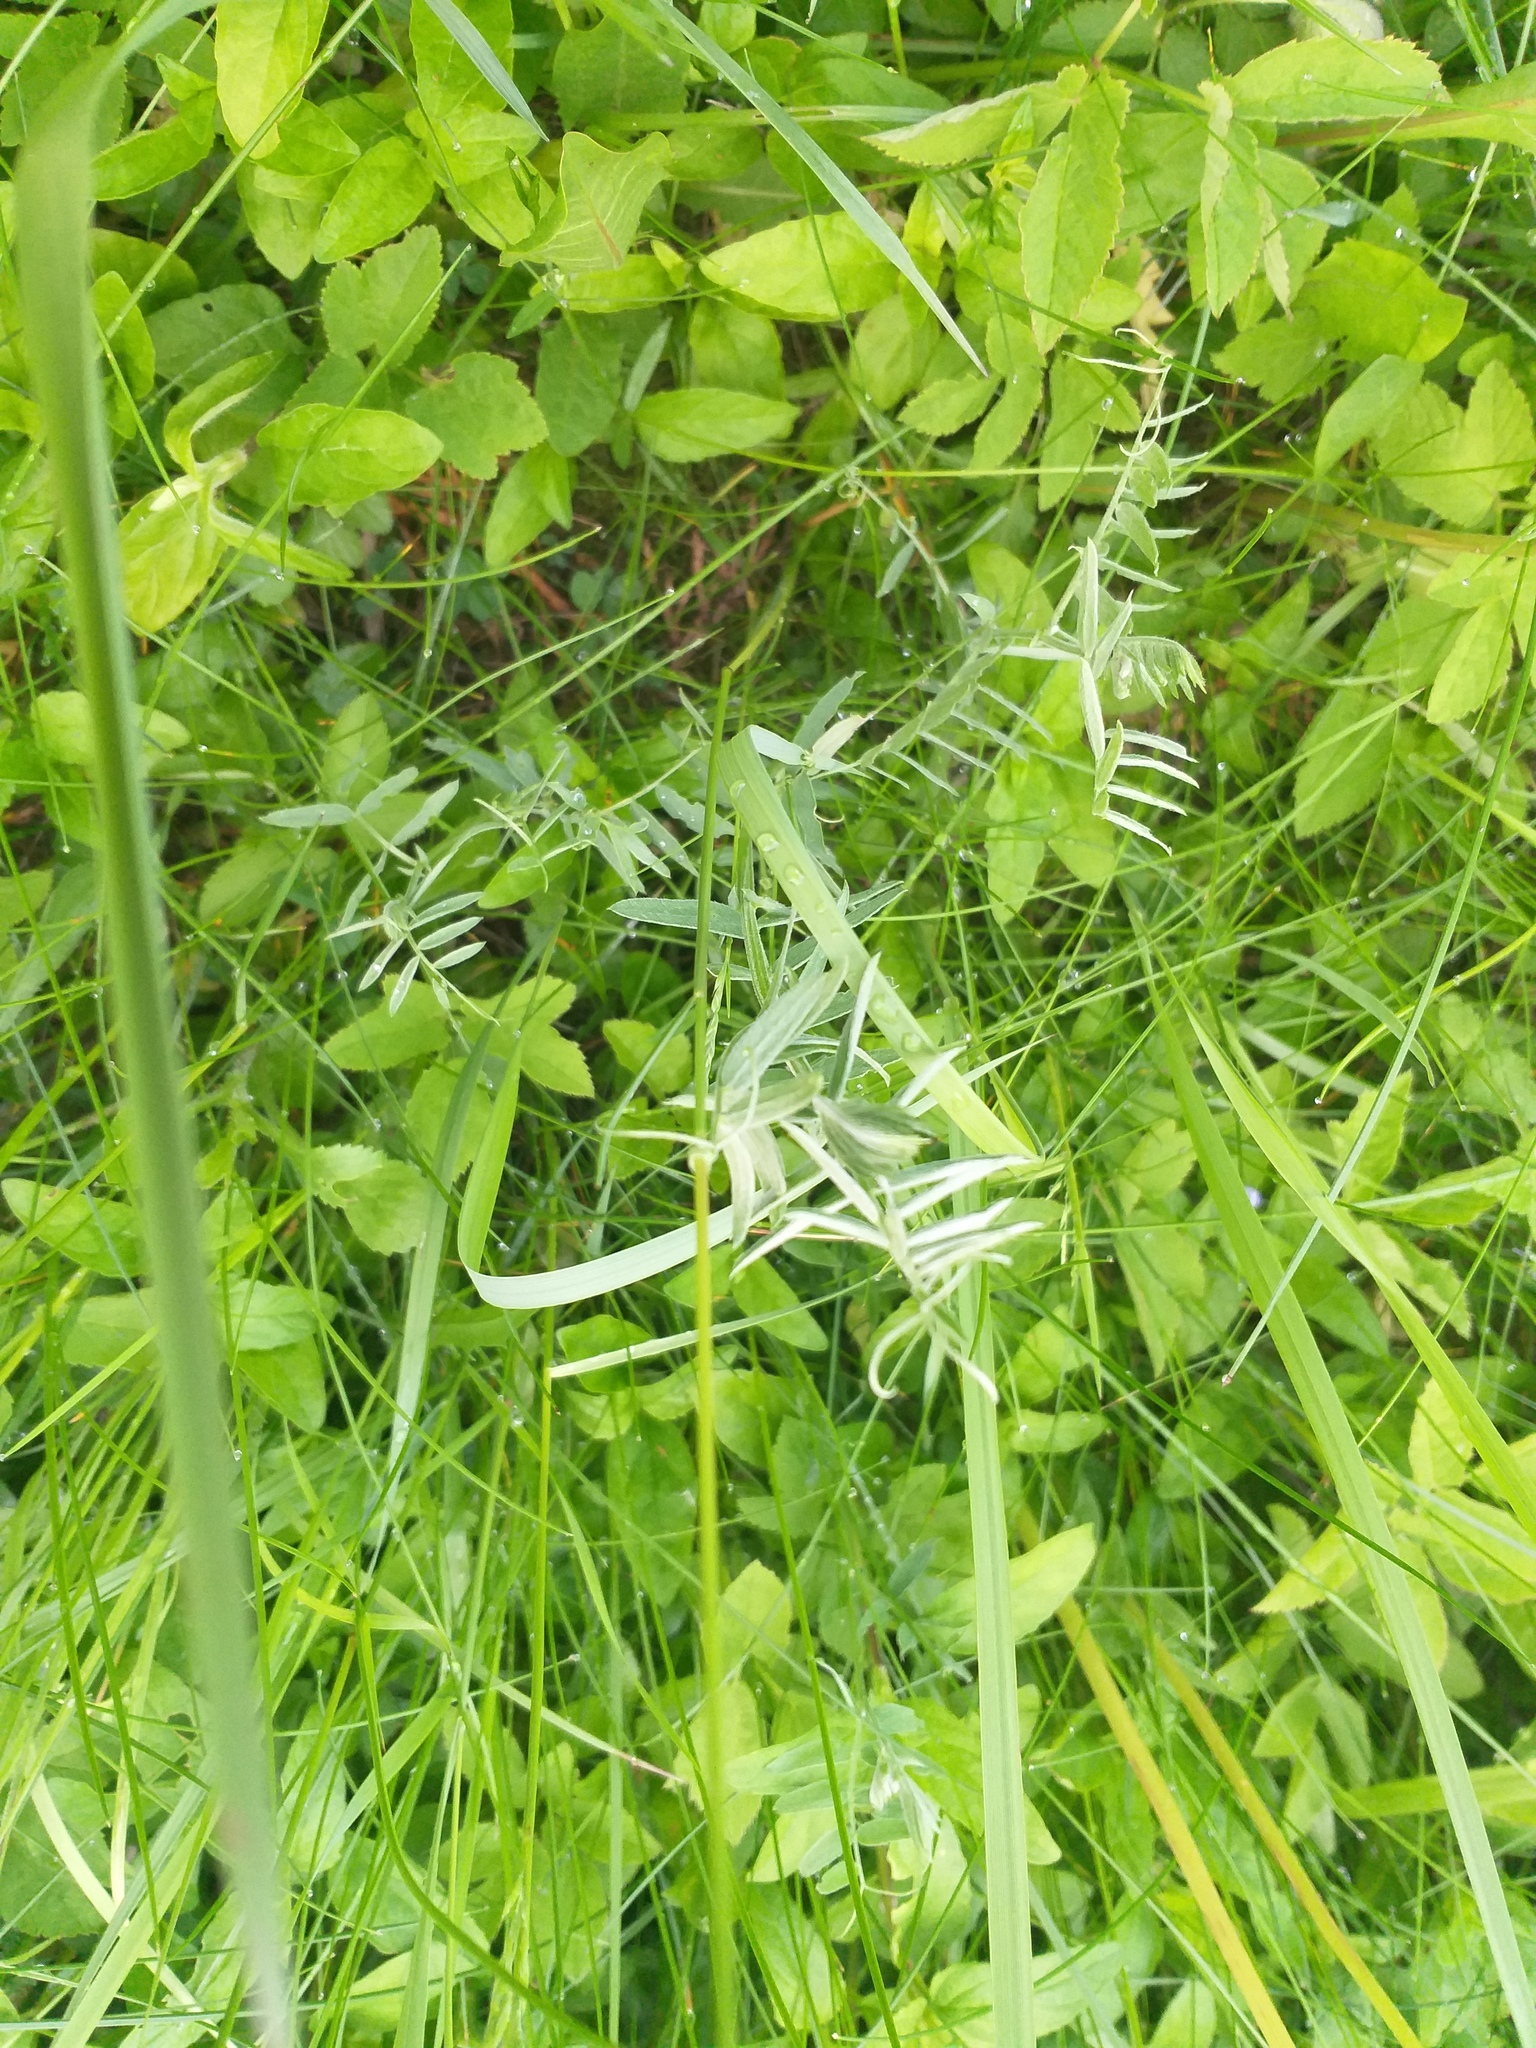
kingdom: Plantae
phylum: Tracheophyta
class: Magnoliopsida
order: Fabales
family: Fabaceae
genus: Vicia
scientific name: Vicia cracca
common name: Bird vetch
